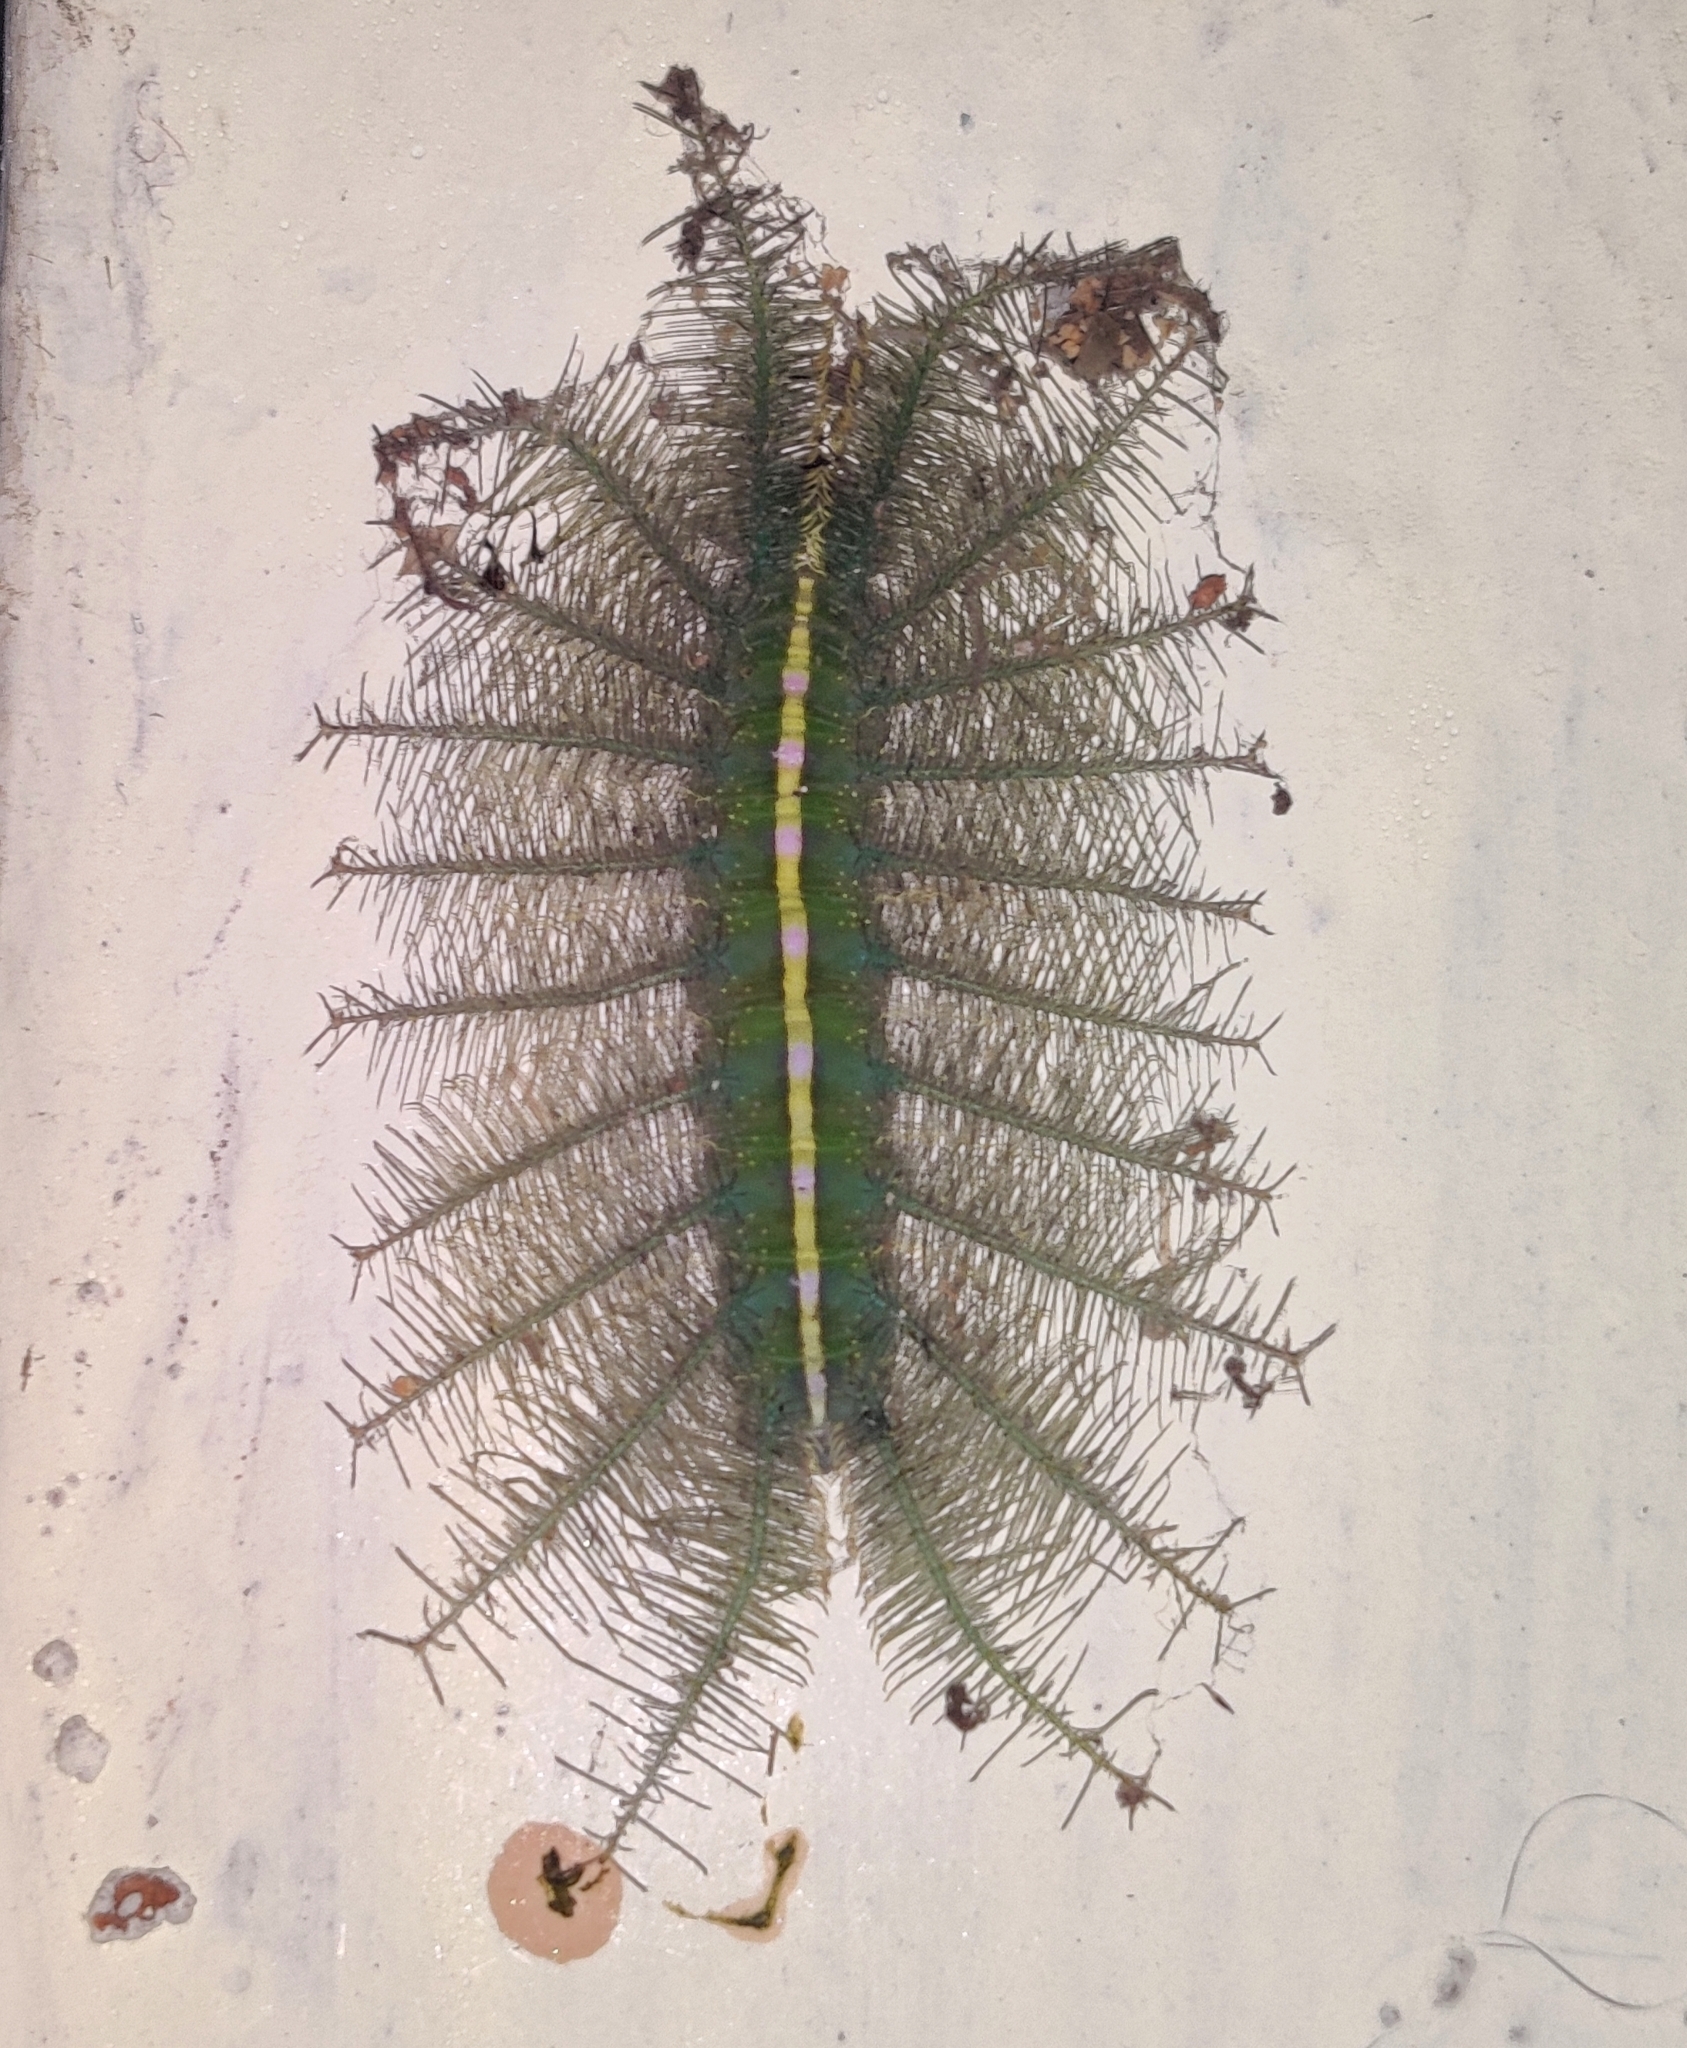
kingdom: Animalia
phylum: Arthropoda
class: Insecta
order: Lepidoptera
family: Nymphalidae
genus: Euthalia
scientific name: Euthalia aconthea
